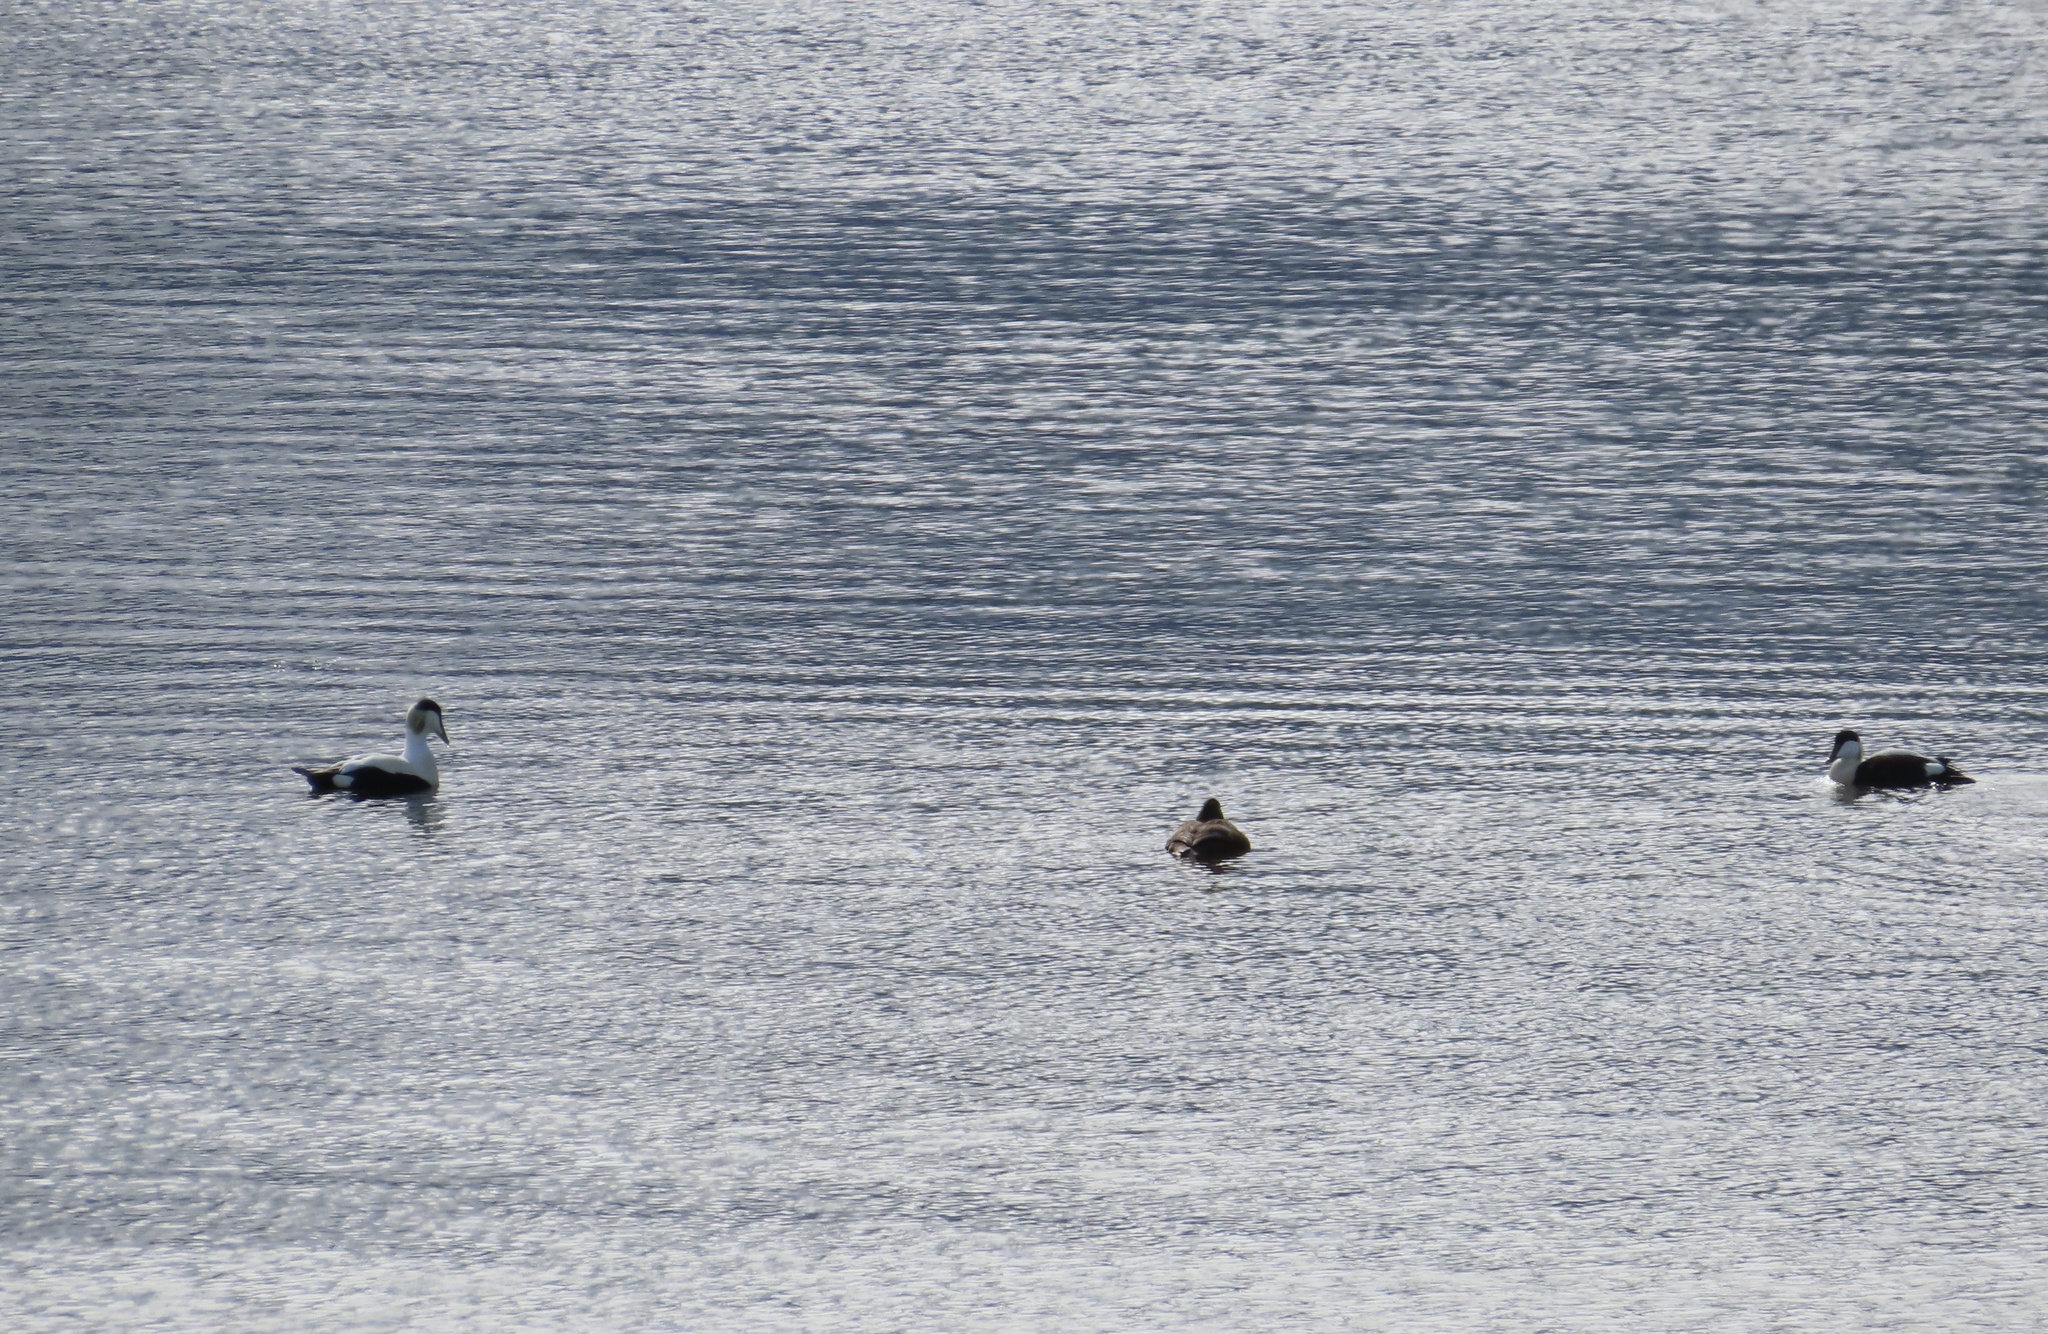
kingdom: Animalia
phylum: Chordata
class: Aves
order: Anseriformes
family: Anatidae
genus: Somateria
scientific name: Somateria mollissima
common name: Common eider
